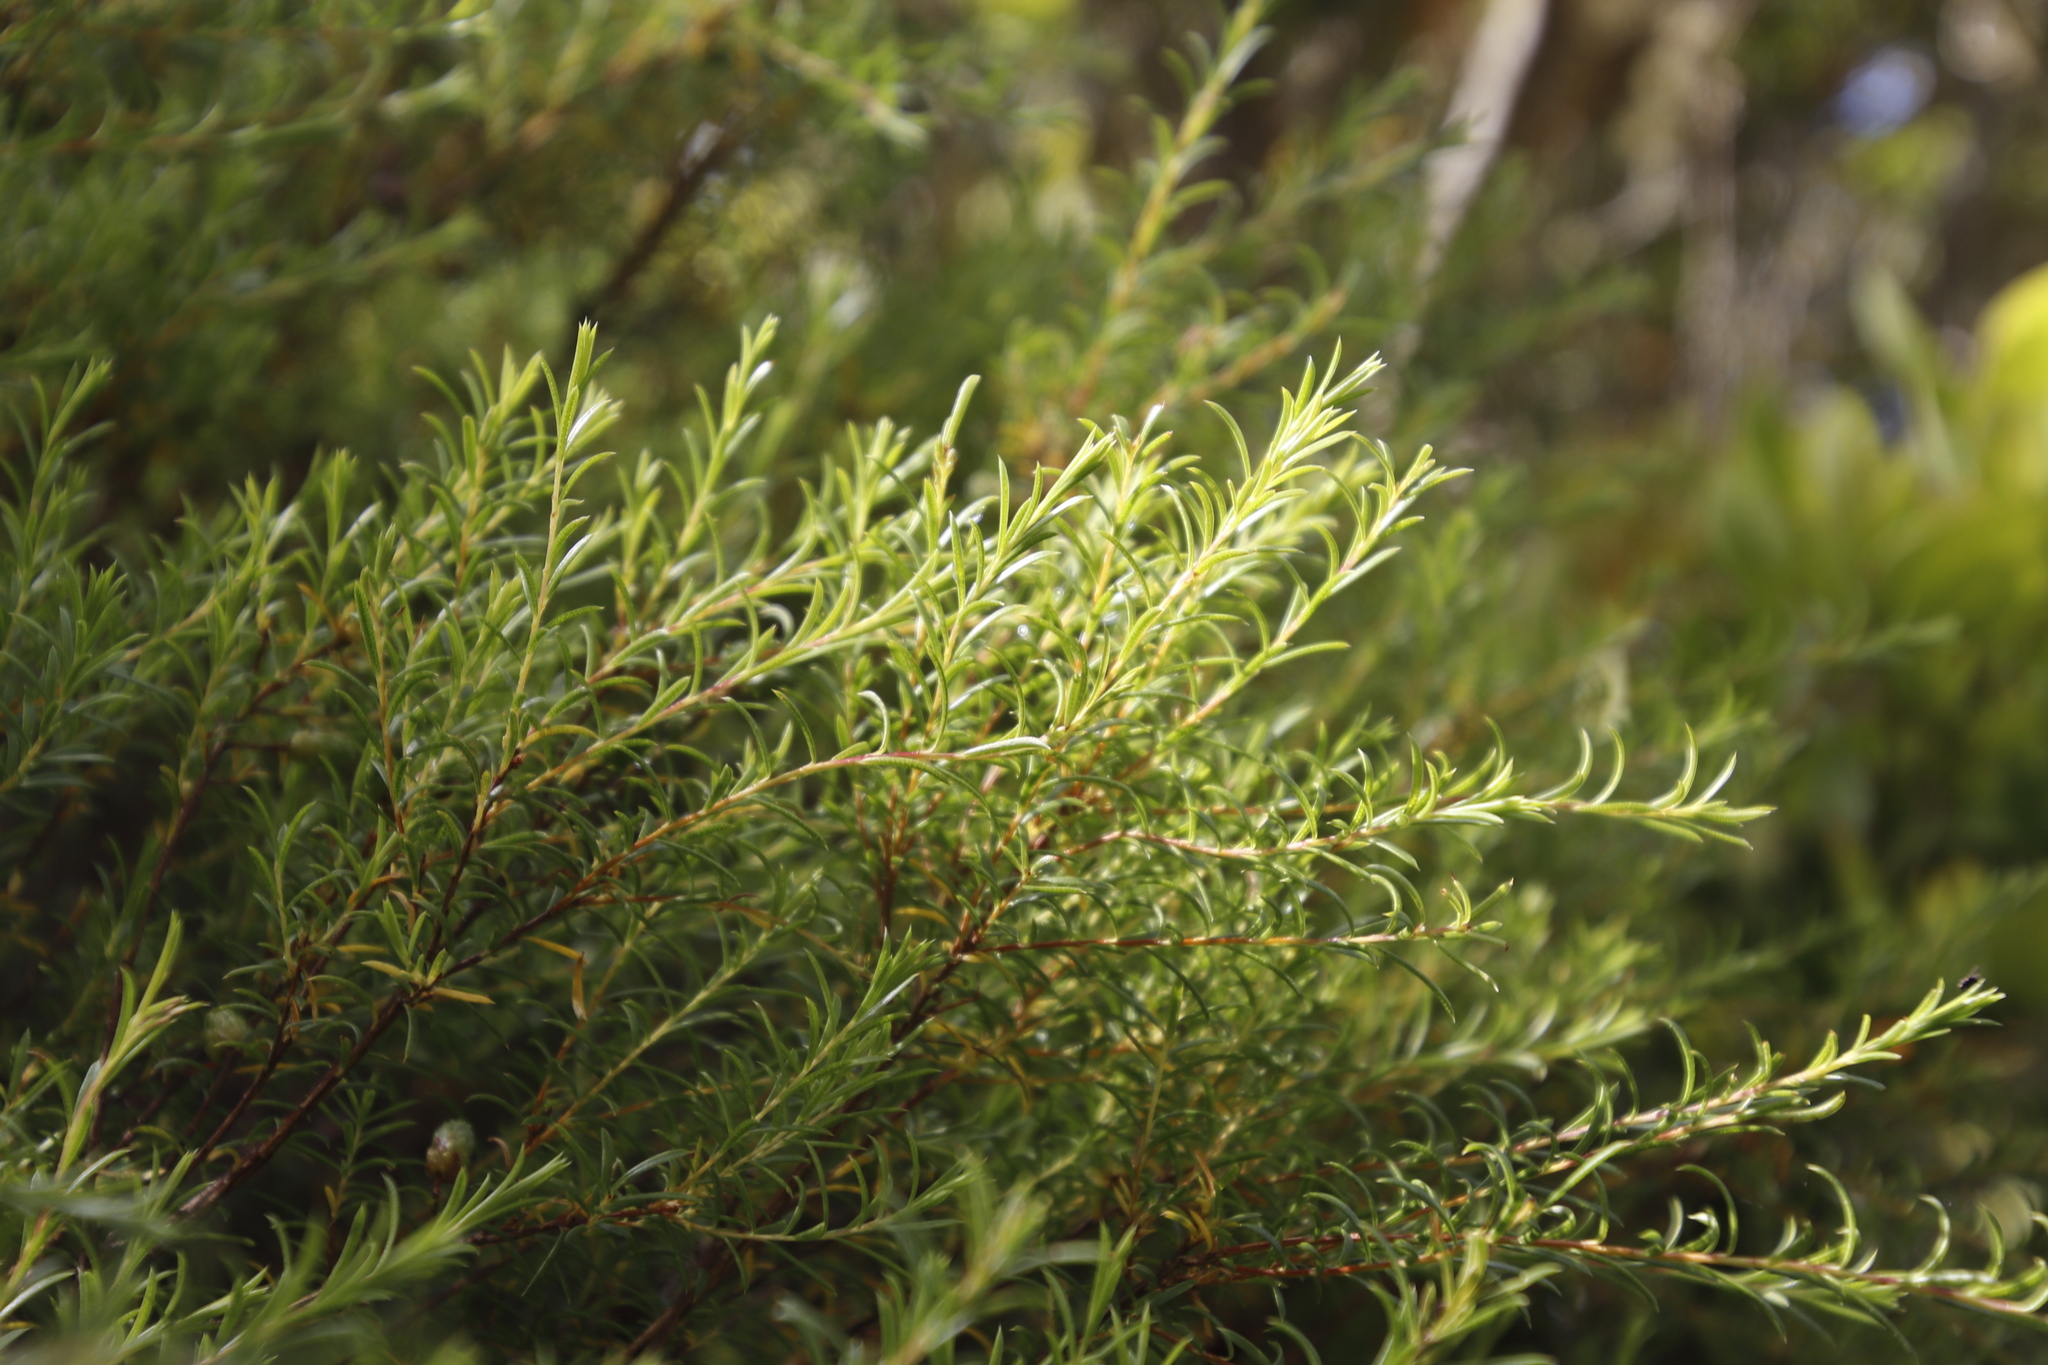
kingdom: Plantae
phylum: Tracheophyta
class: Magnoliopsida
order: Sapindales
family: Rutaceae
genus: Coleonema
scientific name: Coleonema album
